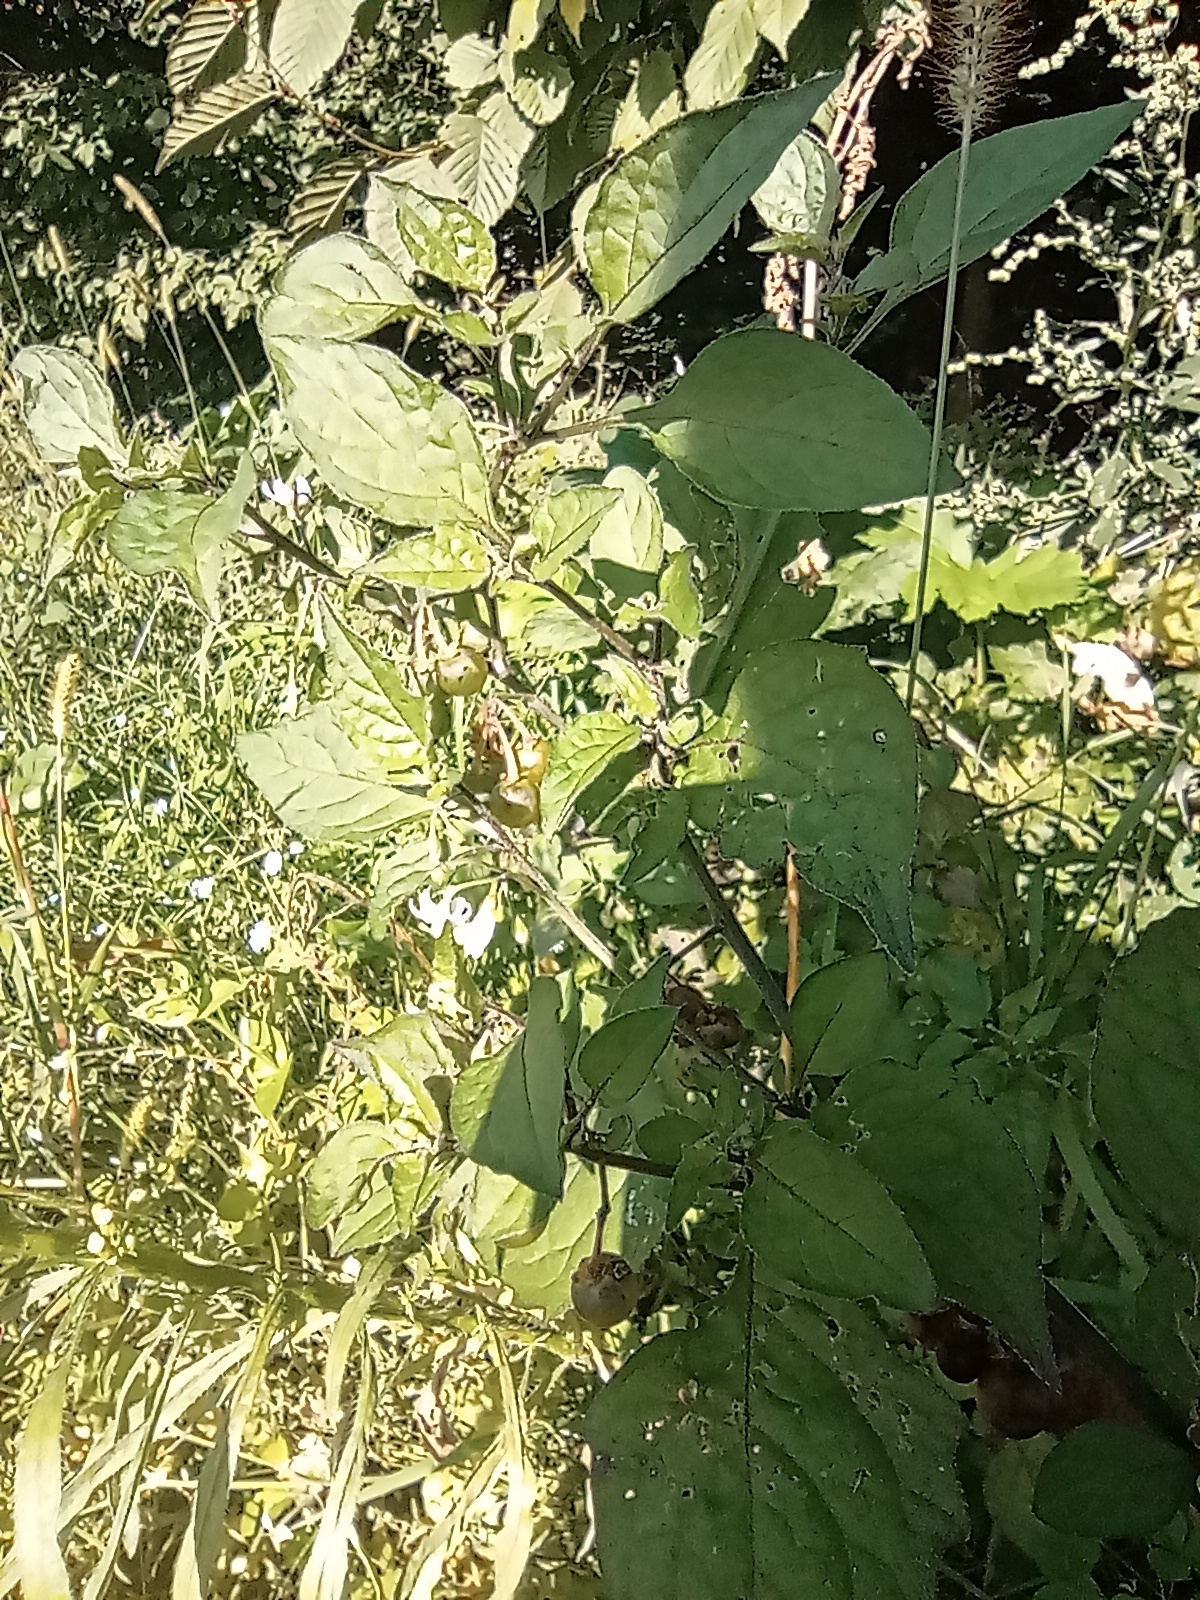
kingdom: Plantae
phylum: Tracheophyta
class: Magnoliopsida
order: Solanales
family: Solanaceae
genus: Solanum
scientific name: Solanum nigrum
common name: Black nightshade
